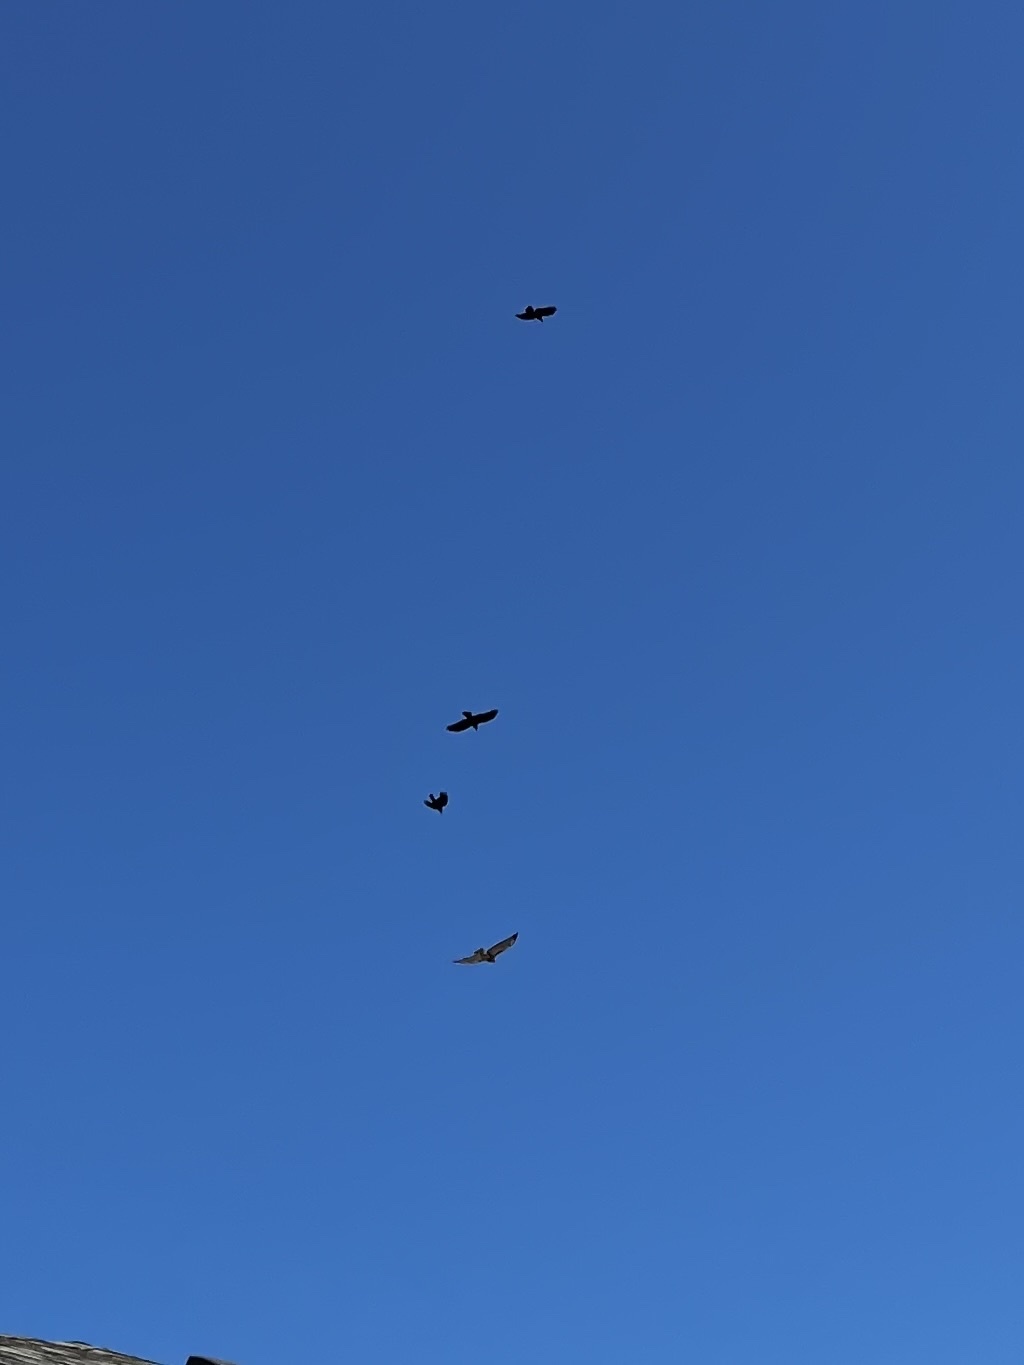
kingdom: Animalia
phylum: Chordata
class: Aves
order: Accipitriformes
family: Accipitridae
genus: Buteo
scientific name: Buteo jamaicensis
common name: Red-tailed hawk
